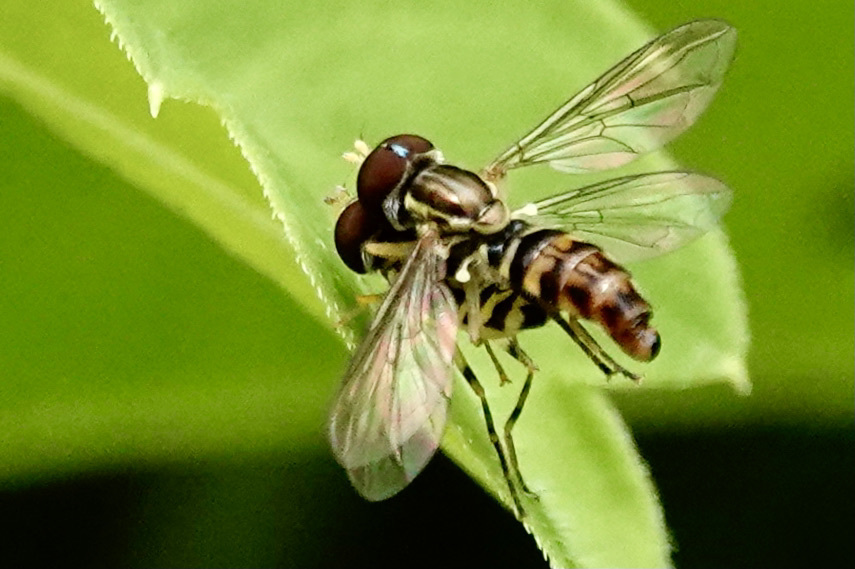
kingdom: Animalia
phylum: Arthropoda
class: Insecta
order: Diptera
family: Syrphidae
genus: Toxomerus
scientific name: Toxomerus geminatus
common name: Eastern calligrapher
